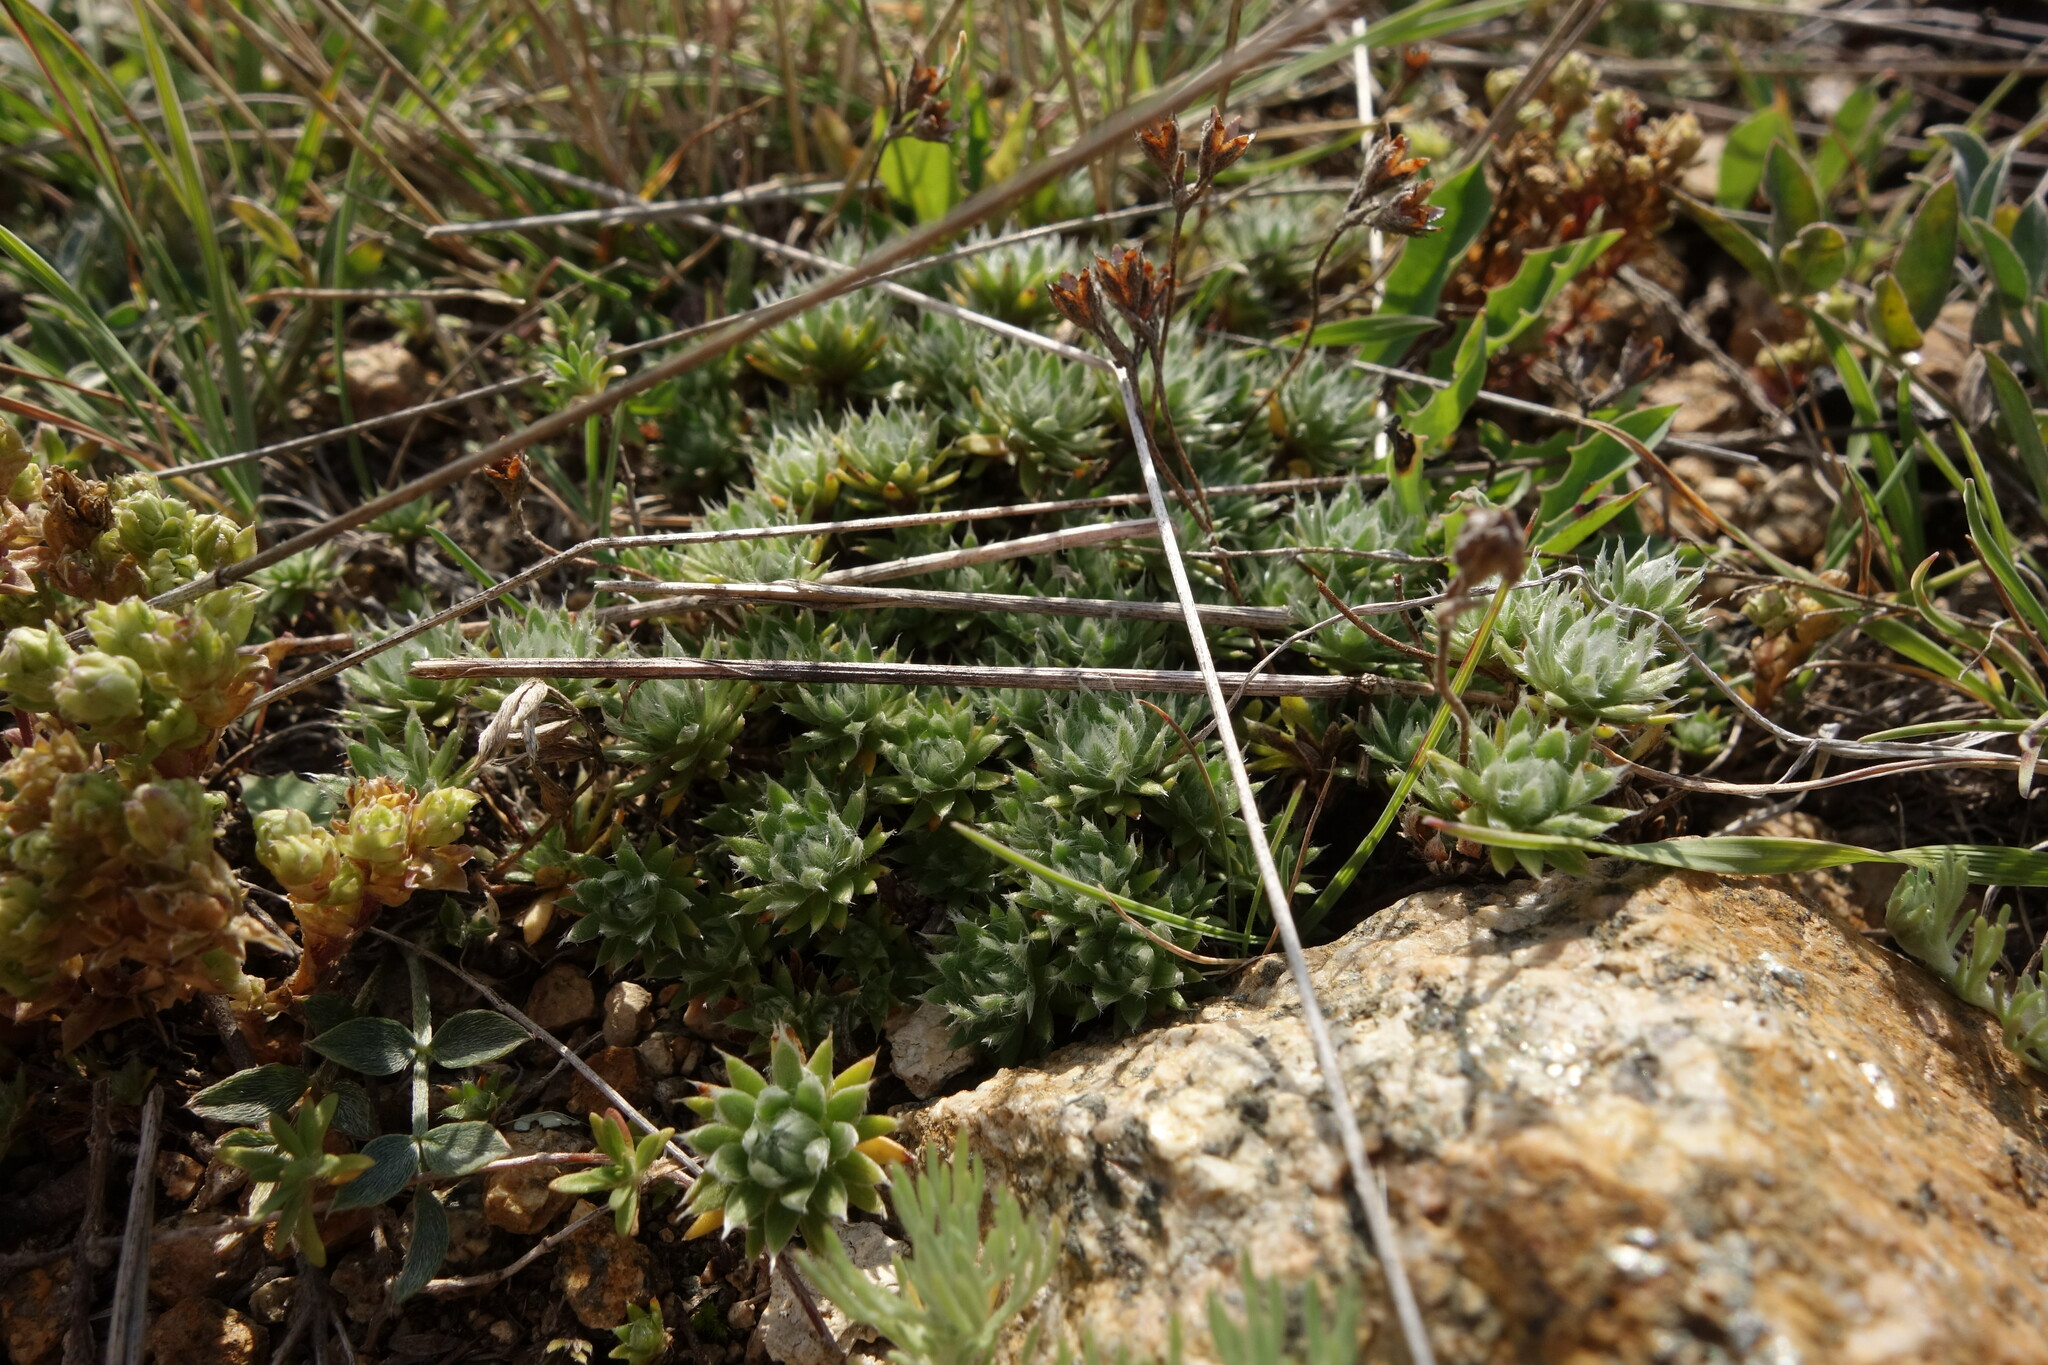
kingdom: Plantae
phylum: Tracheophyta
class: Magnoliopsida
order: Ericales
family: Primulaceae
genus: Androsace
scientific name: Androsace incana
